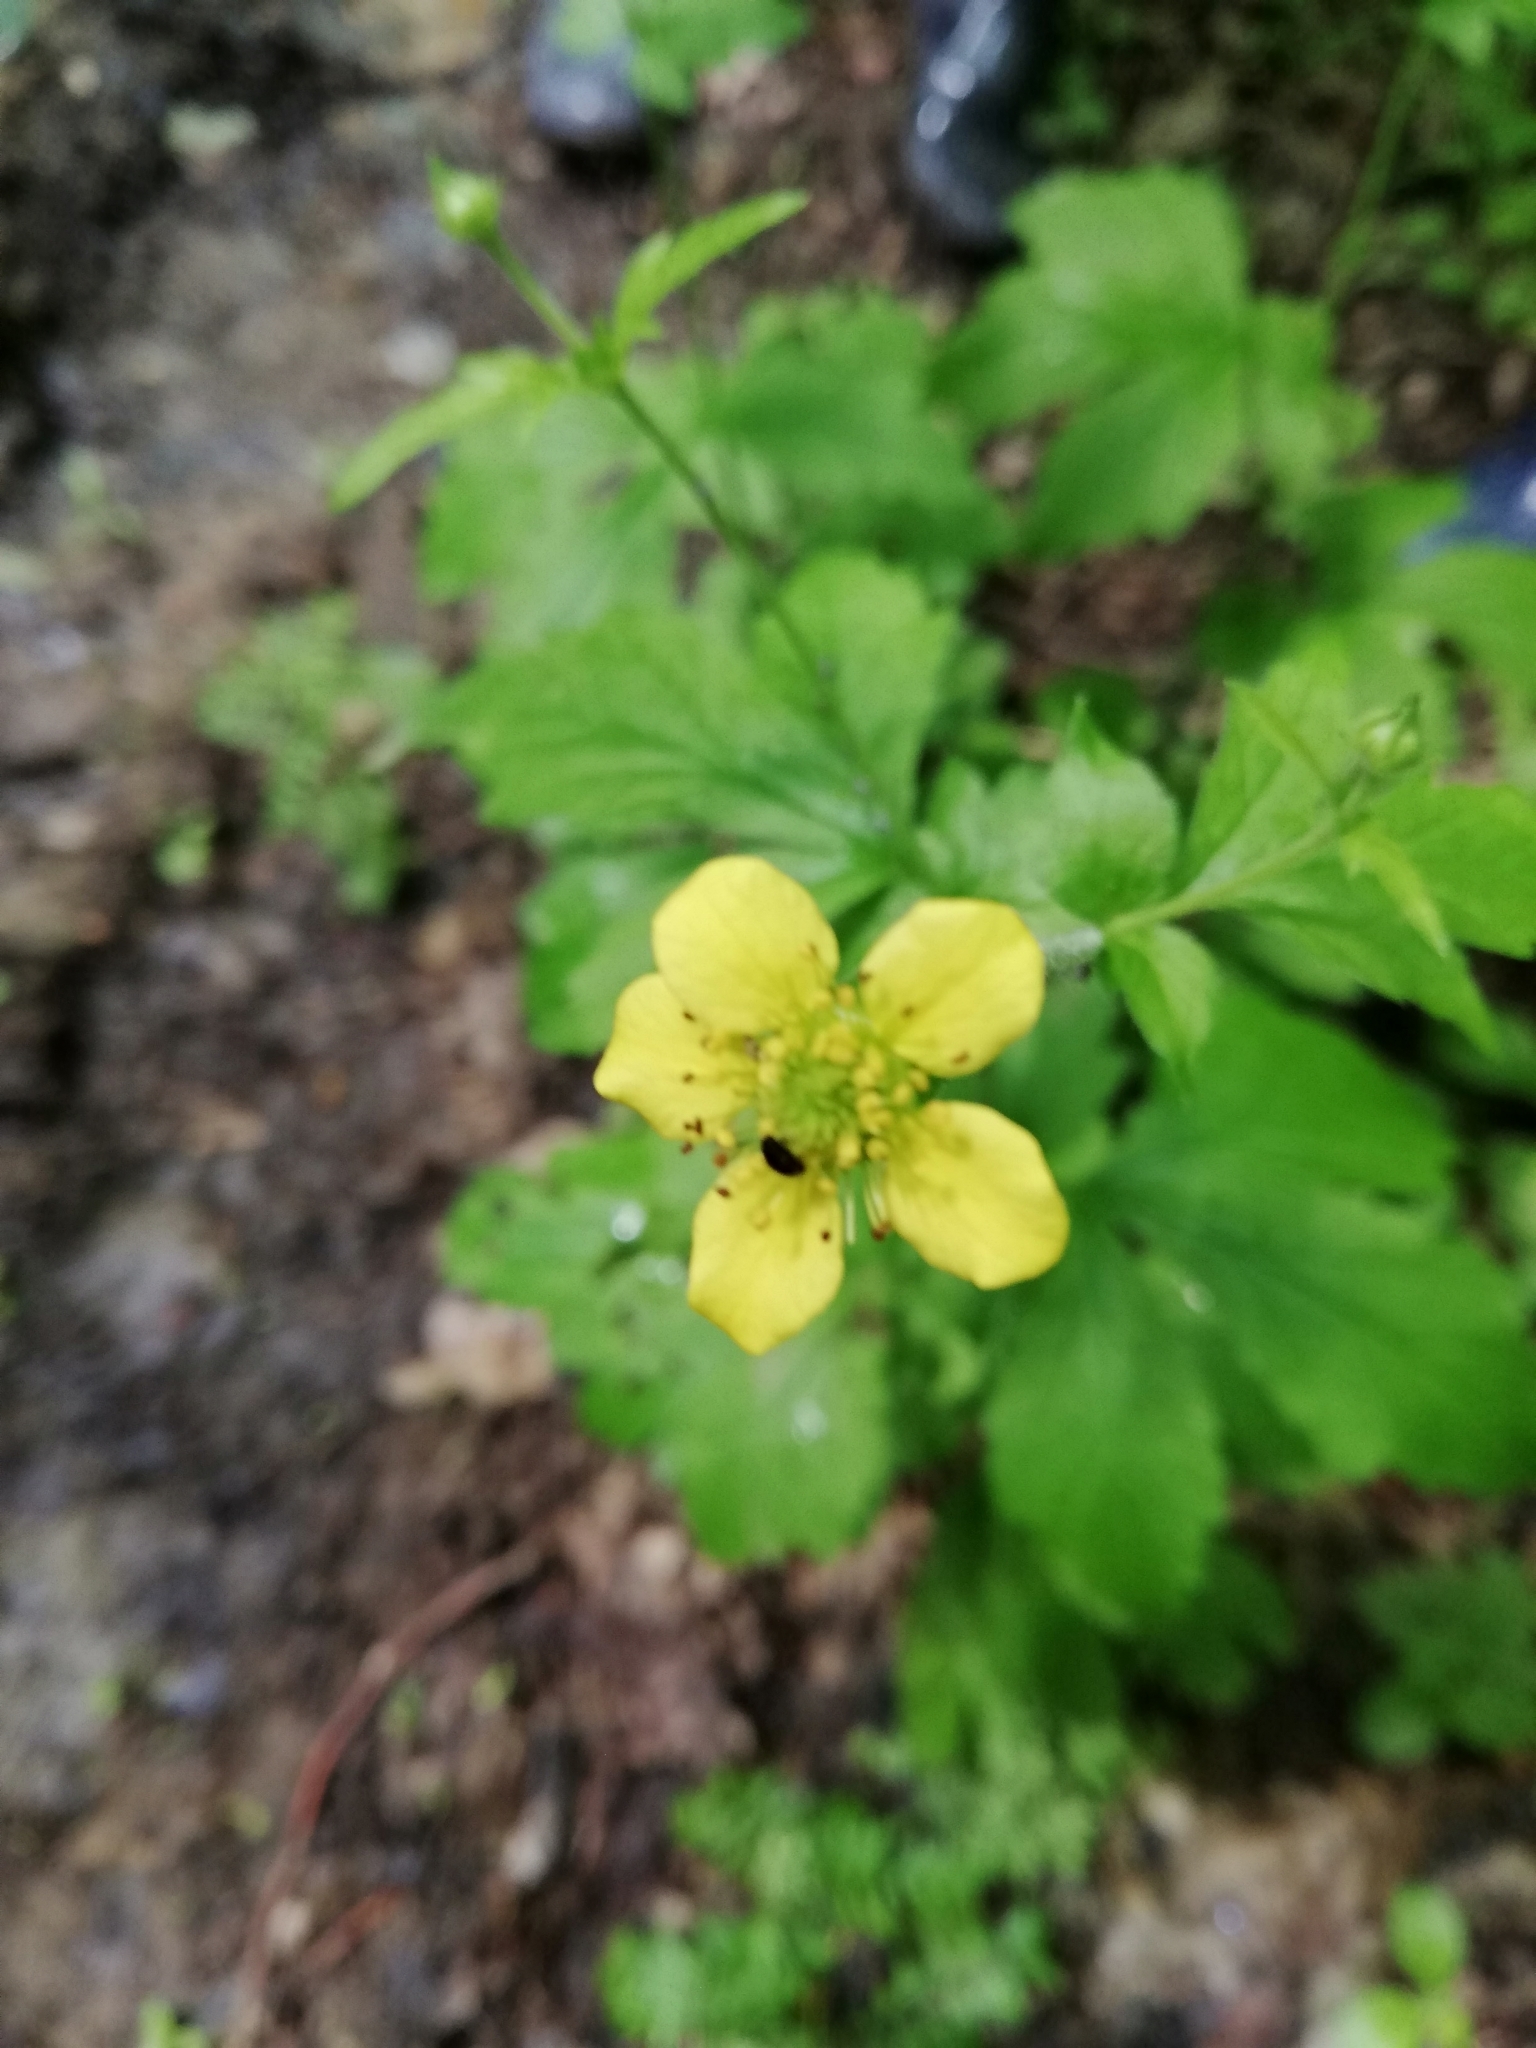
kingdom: Plantae
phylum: Tracheophyta
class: Magnoliopsida
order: Rosales
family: Rosaceae
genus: Geum
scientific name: Geum urbanum
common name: Wood avens
